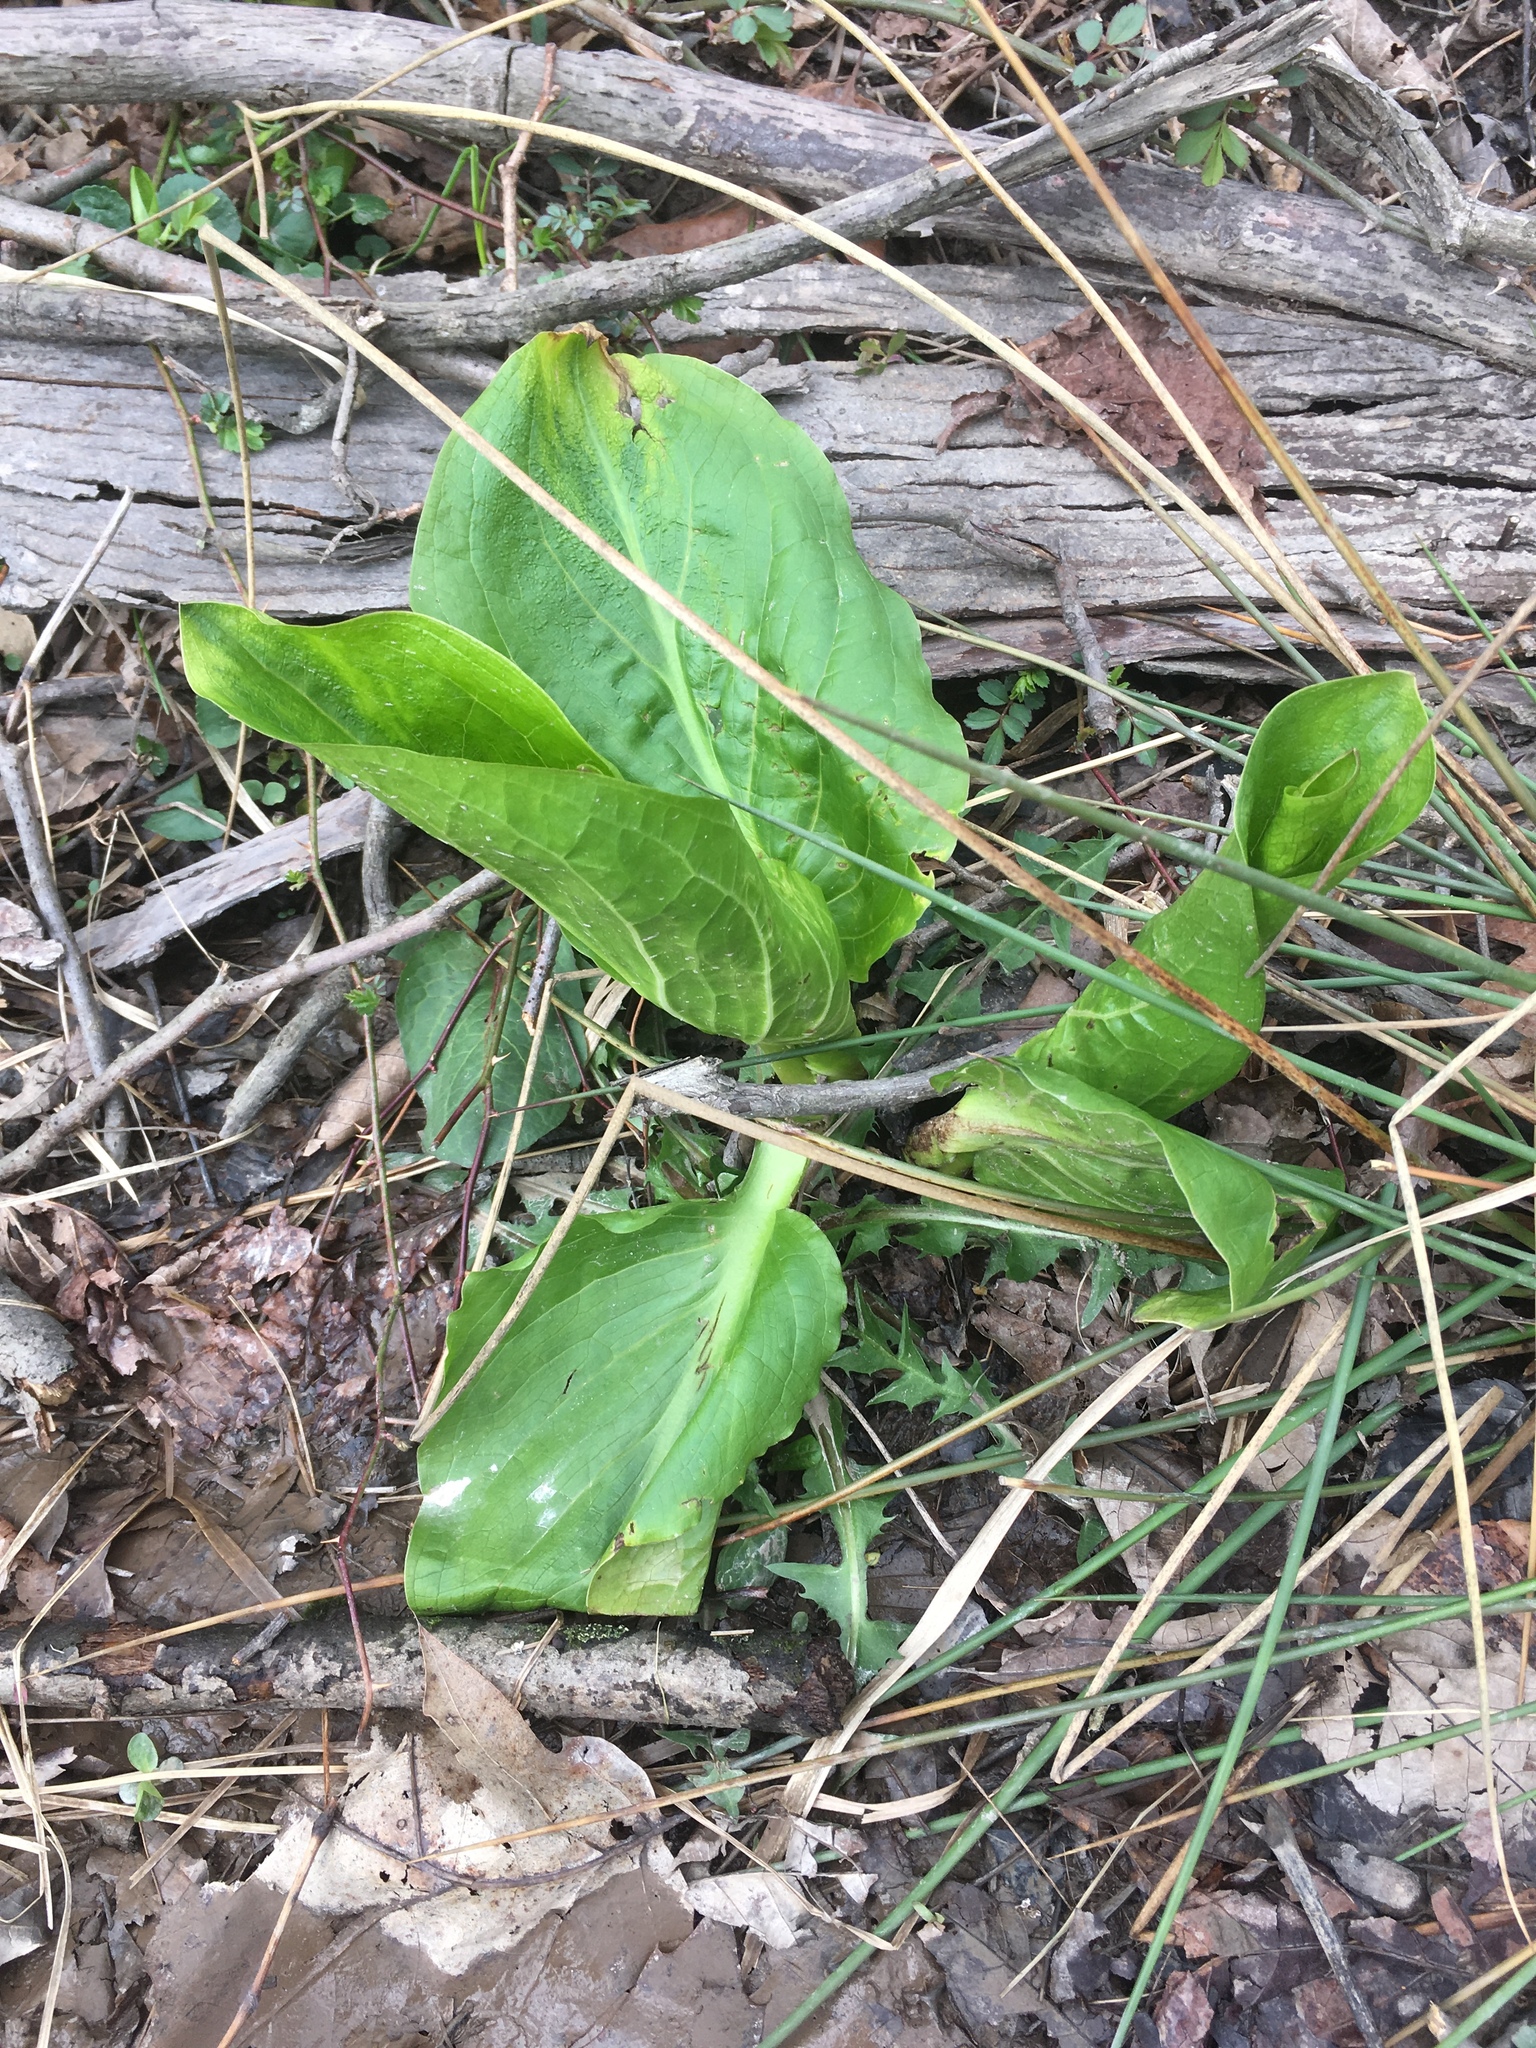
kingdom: Plantae
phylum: Tracheophyta
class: Liliopsida
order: Alismatales
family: Araceae
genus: Symplocarpus
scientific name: Symplocarpus foetidus
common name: Eastern skunk cabbage
